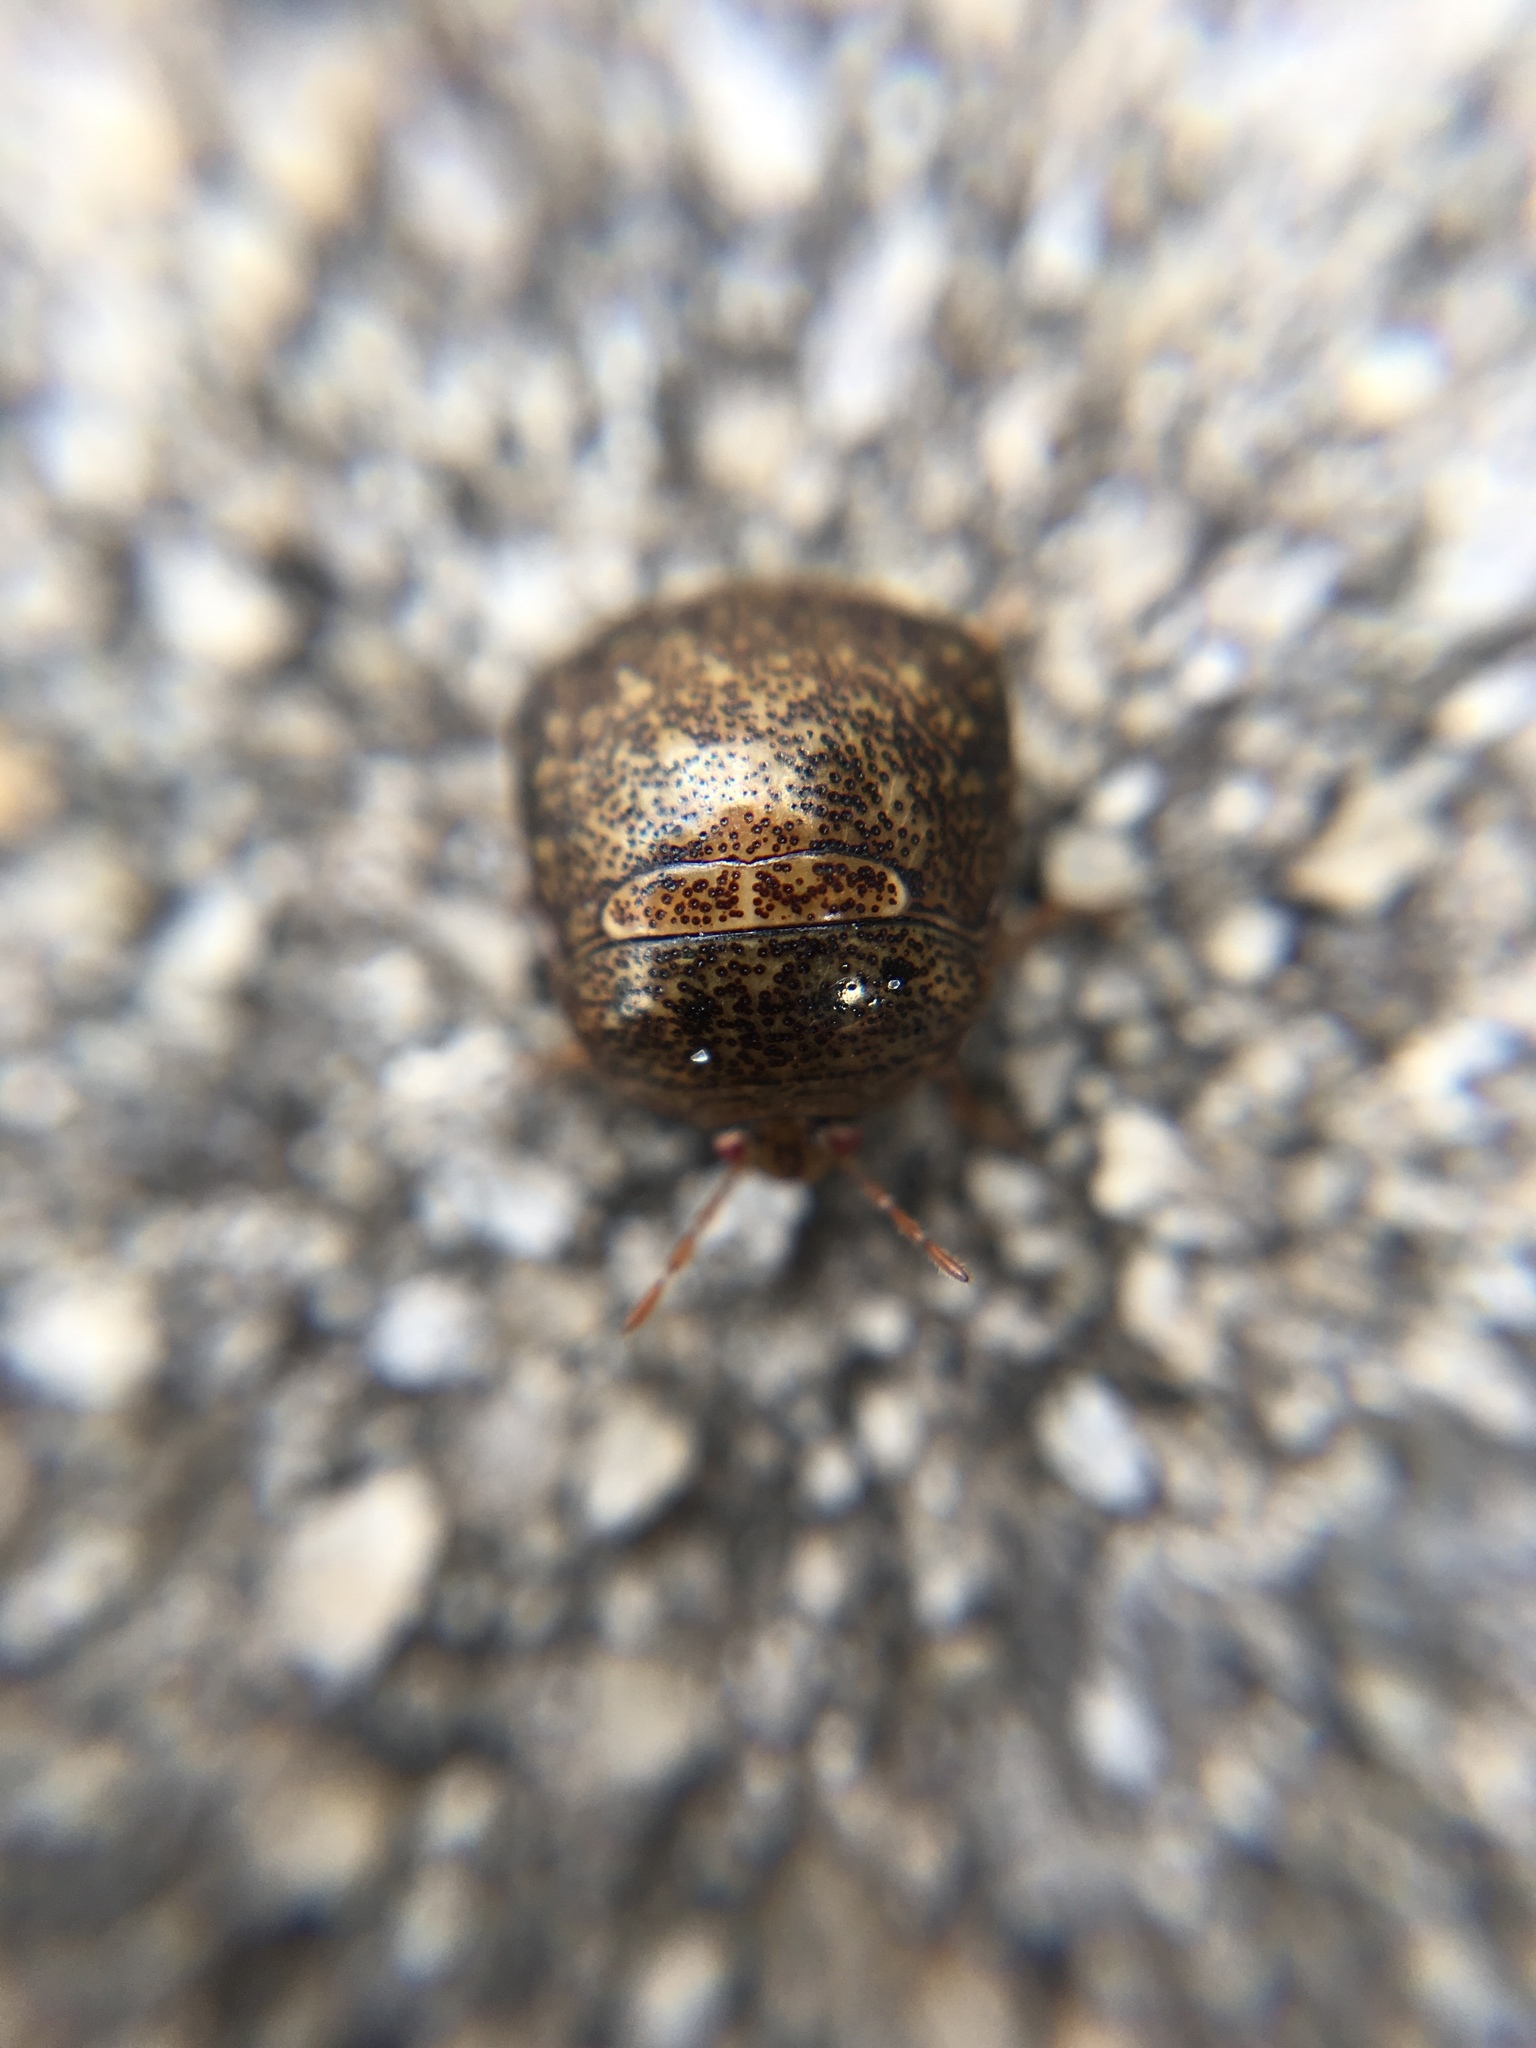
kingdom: Animalia
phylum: Arthropoda
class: Insecta
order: Hemiptera
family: Plataspidae
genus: Megacopta
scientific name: Megacopta cribraria
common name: Bean plataspid
